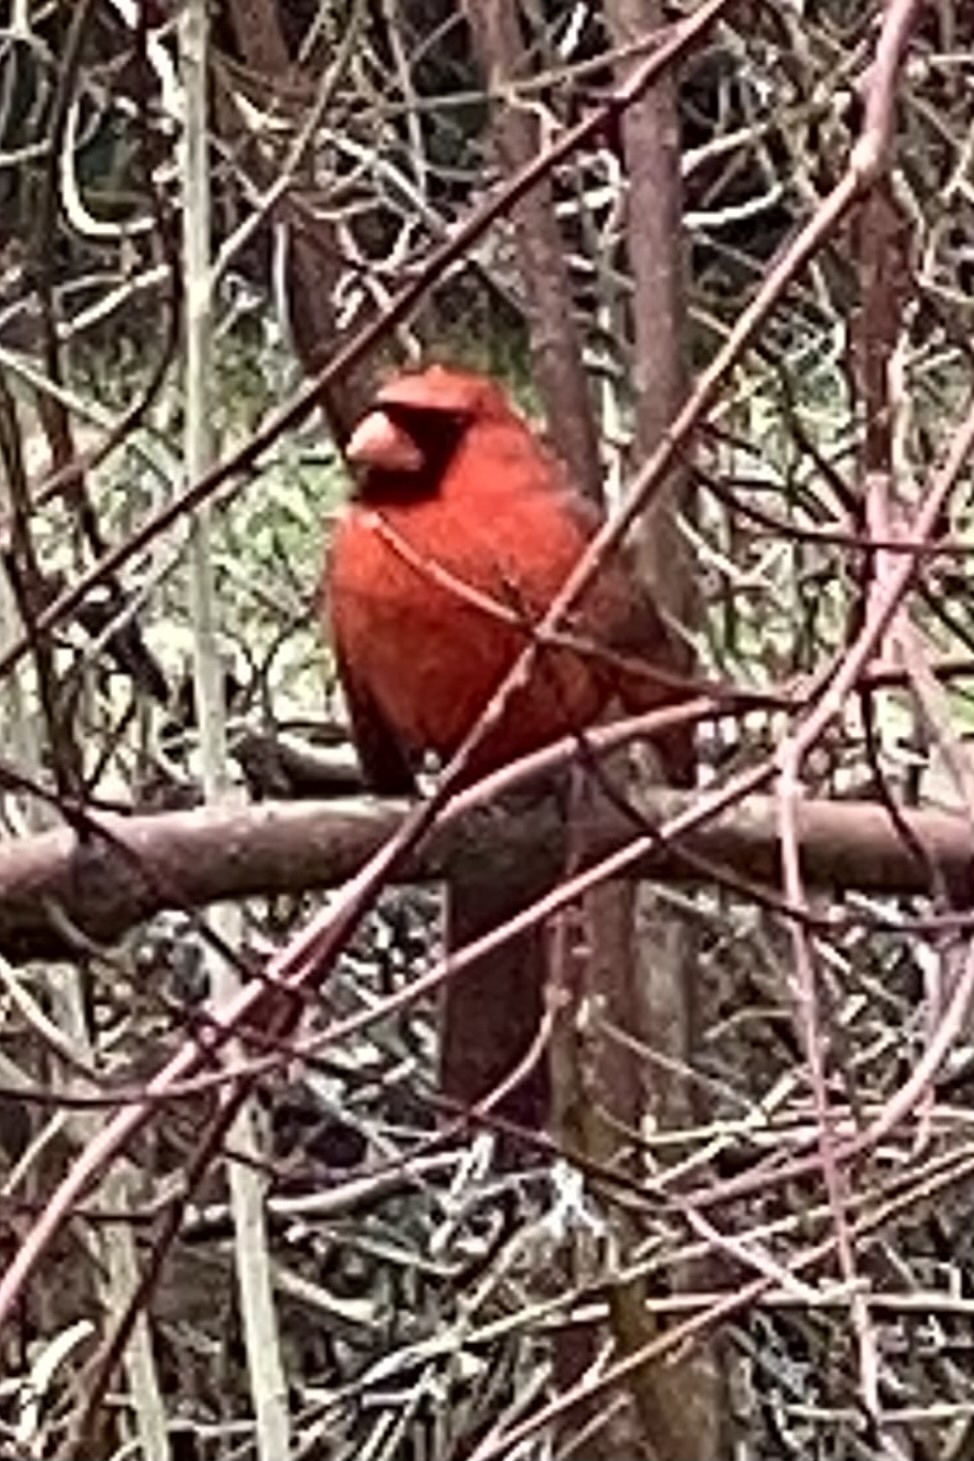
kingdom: Animalia
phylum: Chordata
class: Aves
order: Passeriformes
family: Cardinalidae
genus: Cardinalis
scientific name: Cardinalis cardinalis
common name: Northern cardinal
